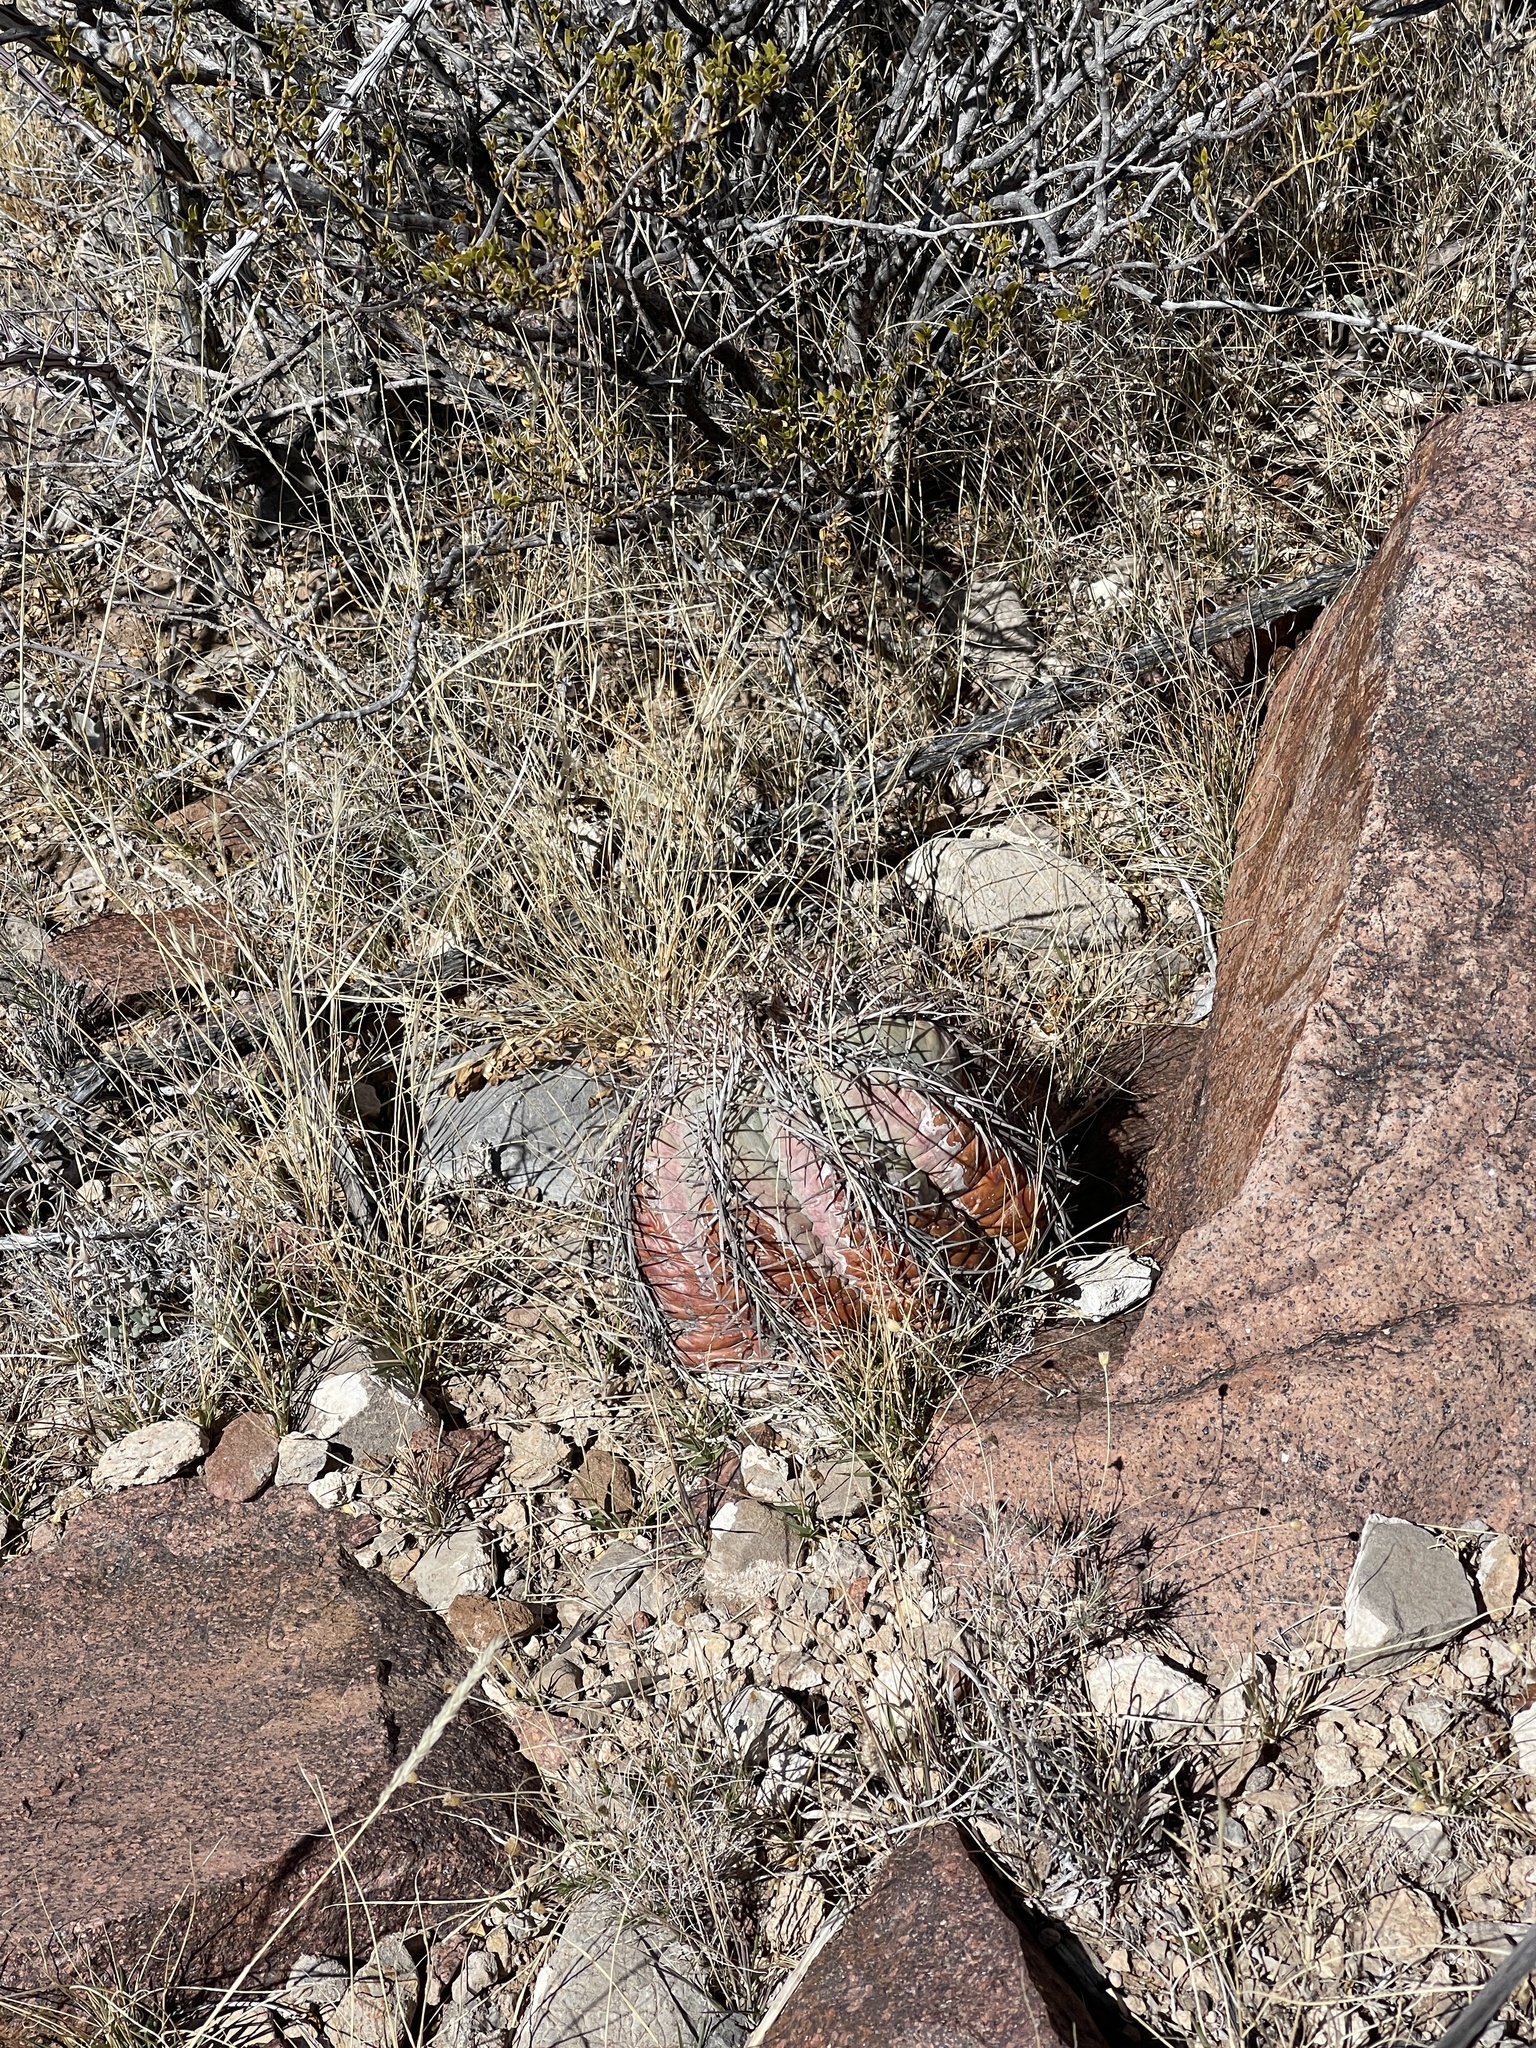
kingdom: Plantae
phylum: Tracheophyta
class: Magnoliopsida
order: Caryophyllales
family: Cactaceae
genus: Echinocactus
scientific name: Echinocactus horizonthalonius
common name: Devilshead
